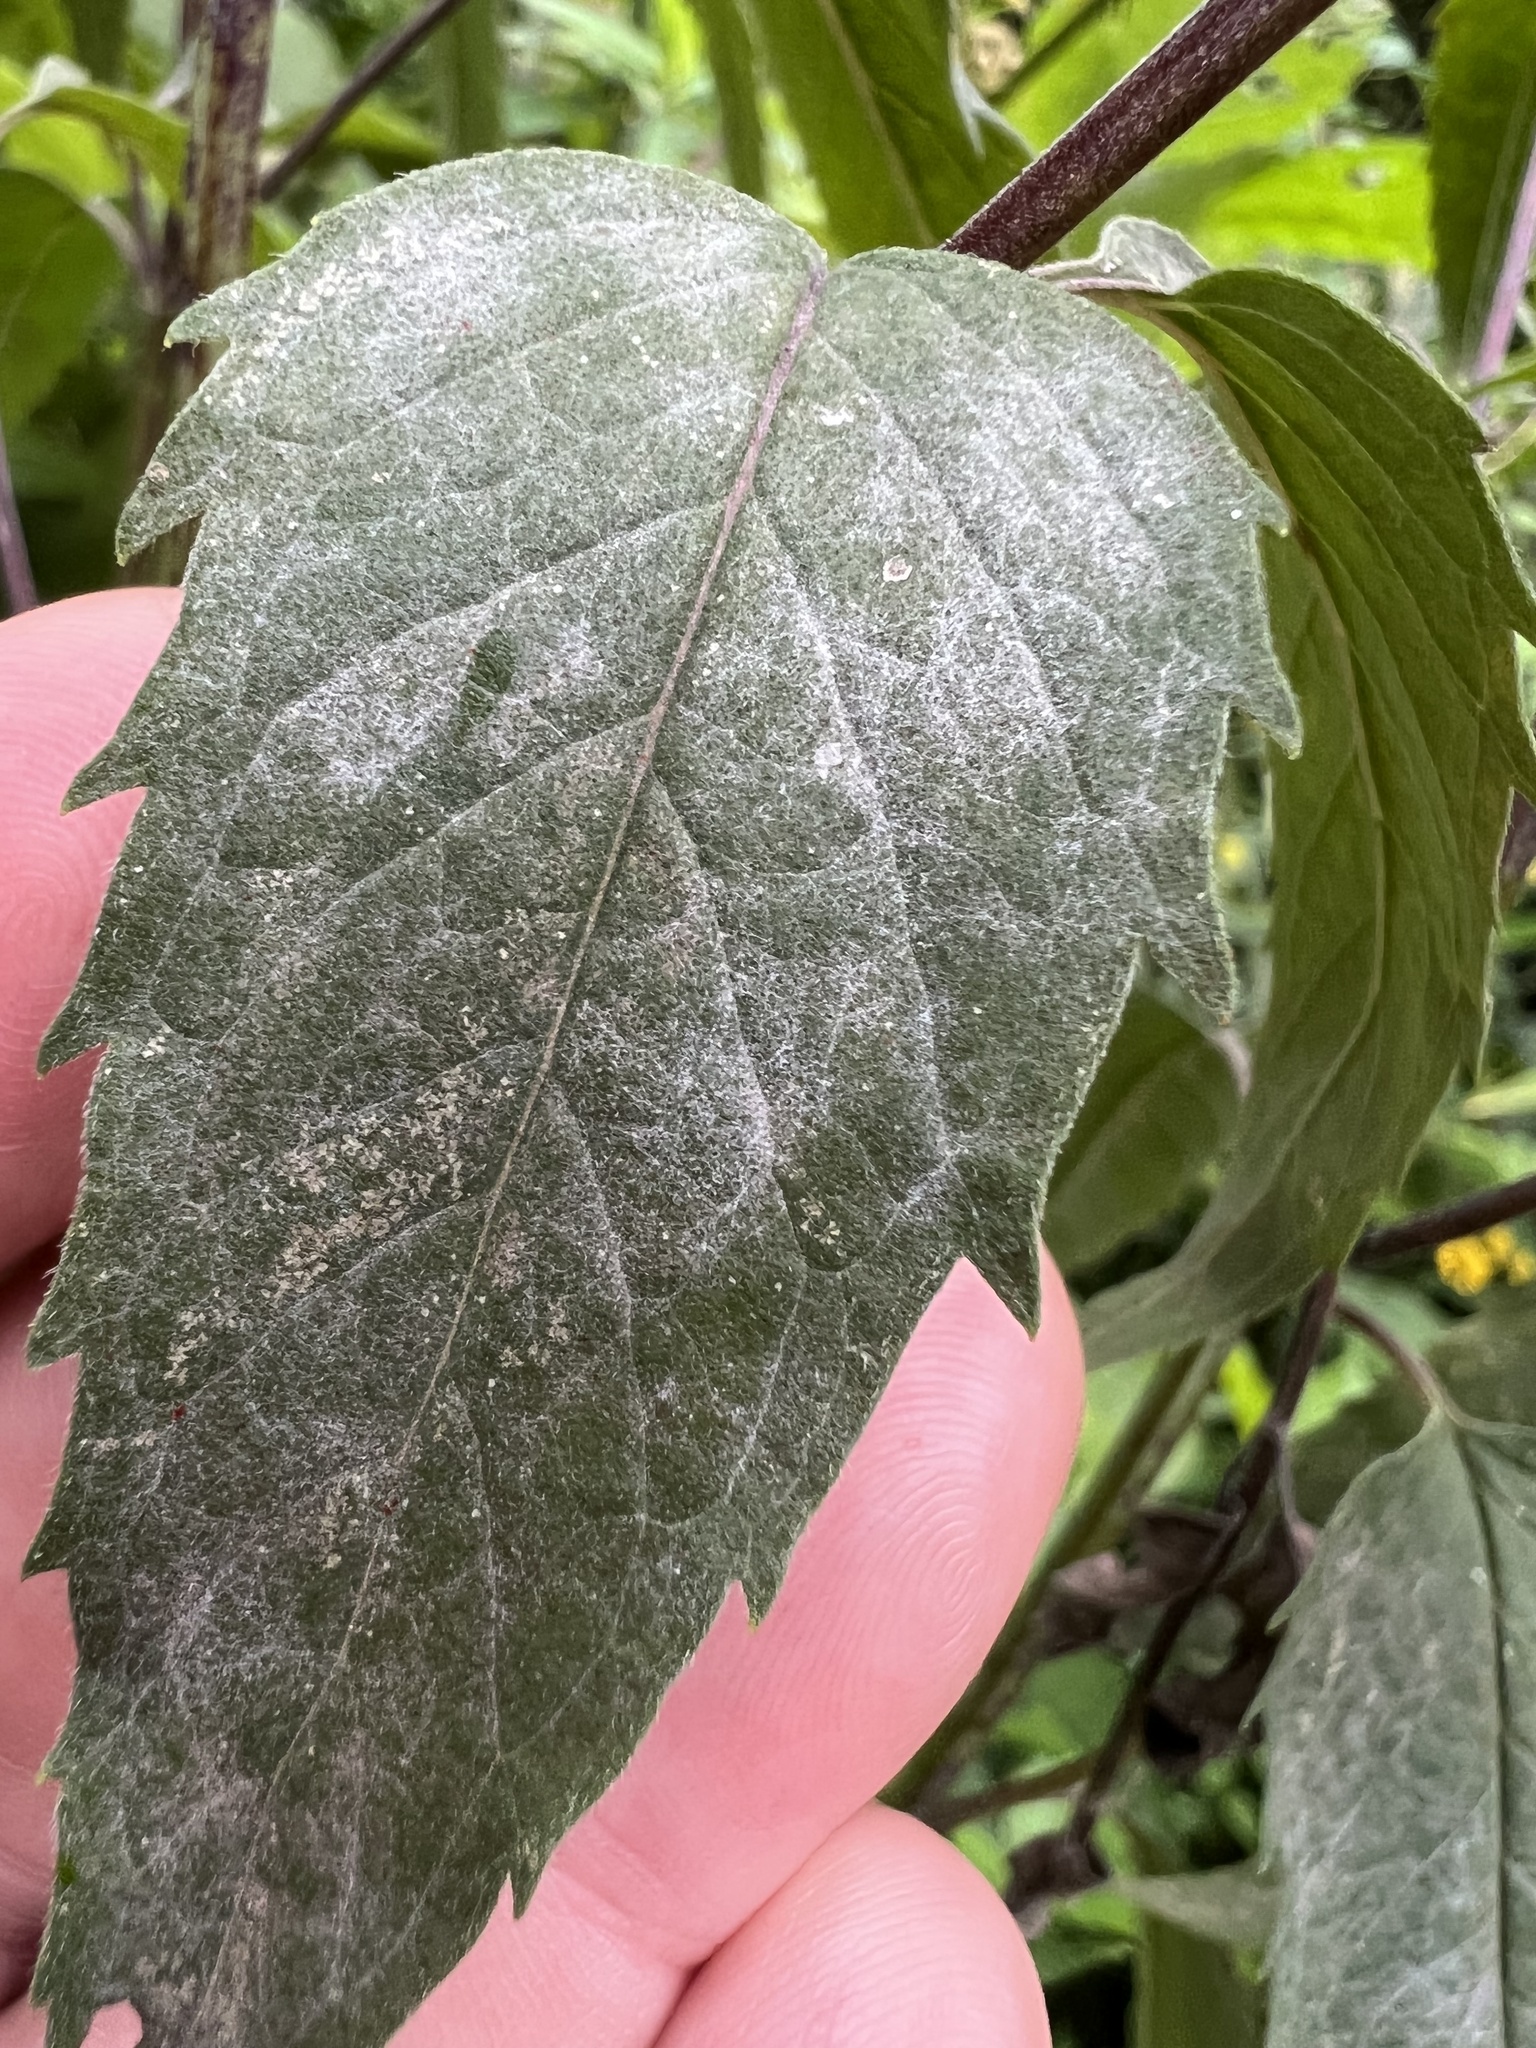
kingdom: Fungi
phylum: Ascomycota
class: Leotiomycetes
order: Helotiales
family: Erysiphaceae
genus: Golovinomyces
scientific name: Golovinomyces monardae
